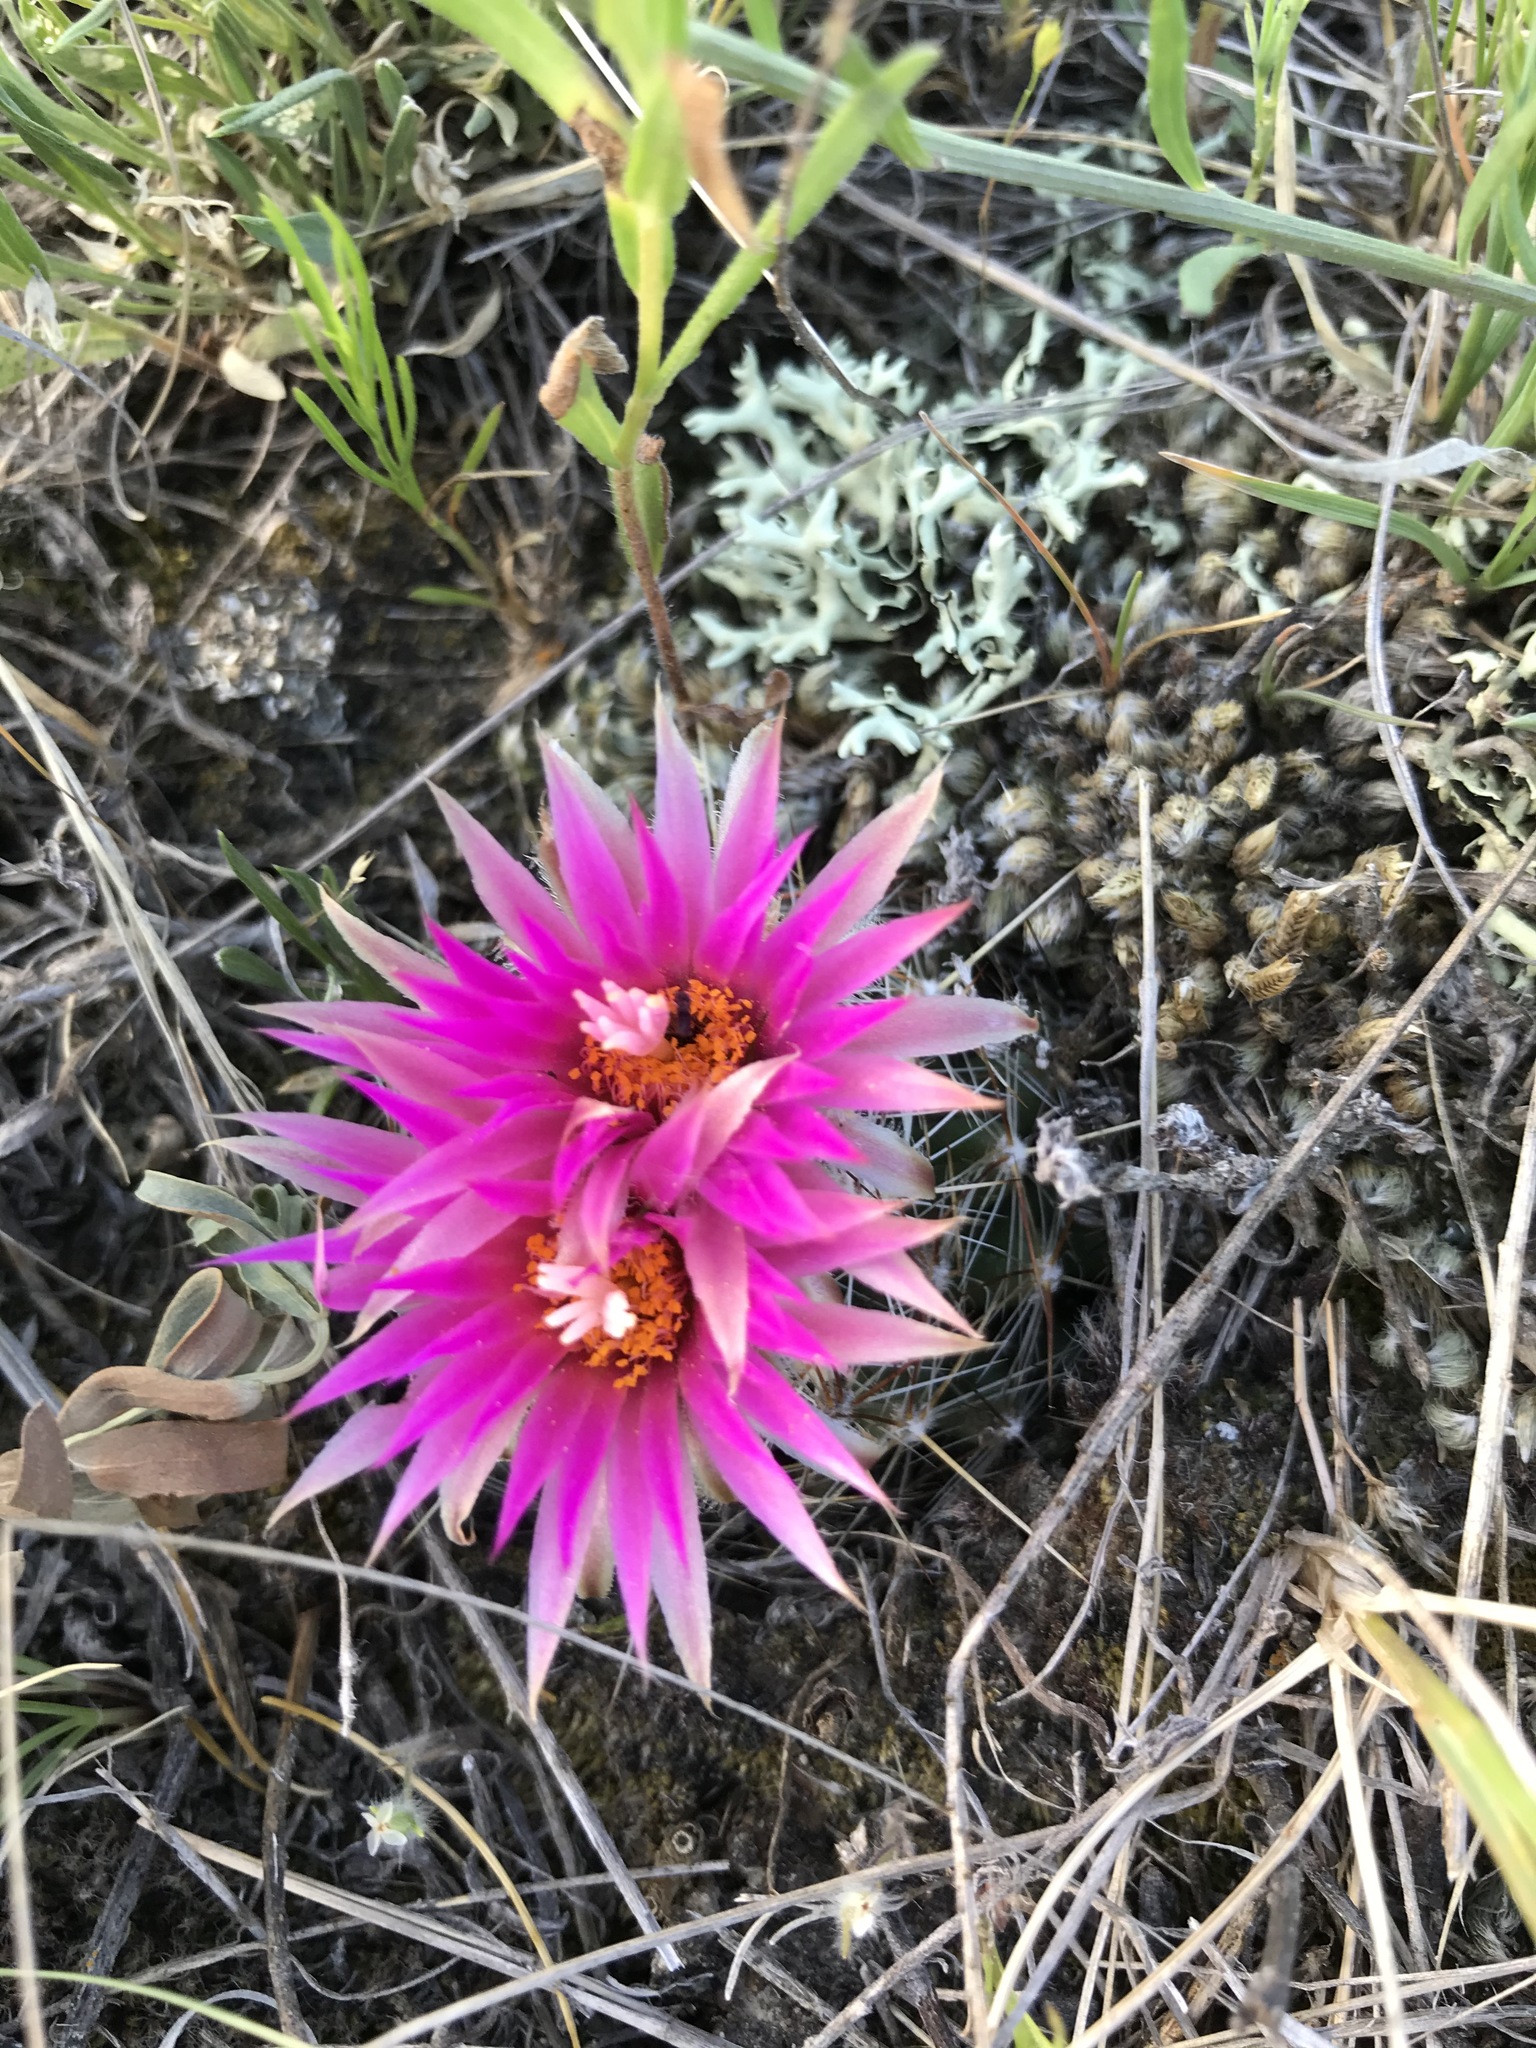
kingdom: Plantae
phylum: Tracheophyta
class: Magnoliopsida
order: Caryophyllales
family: Cactaceae
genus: Pelecyphora
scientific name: Pelecyphora vivipara
